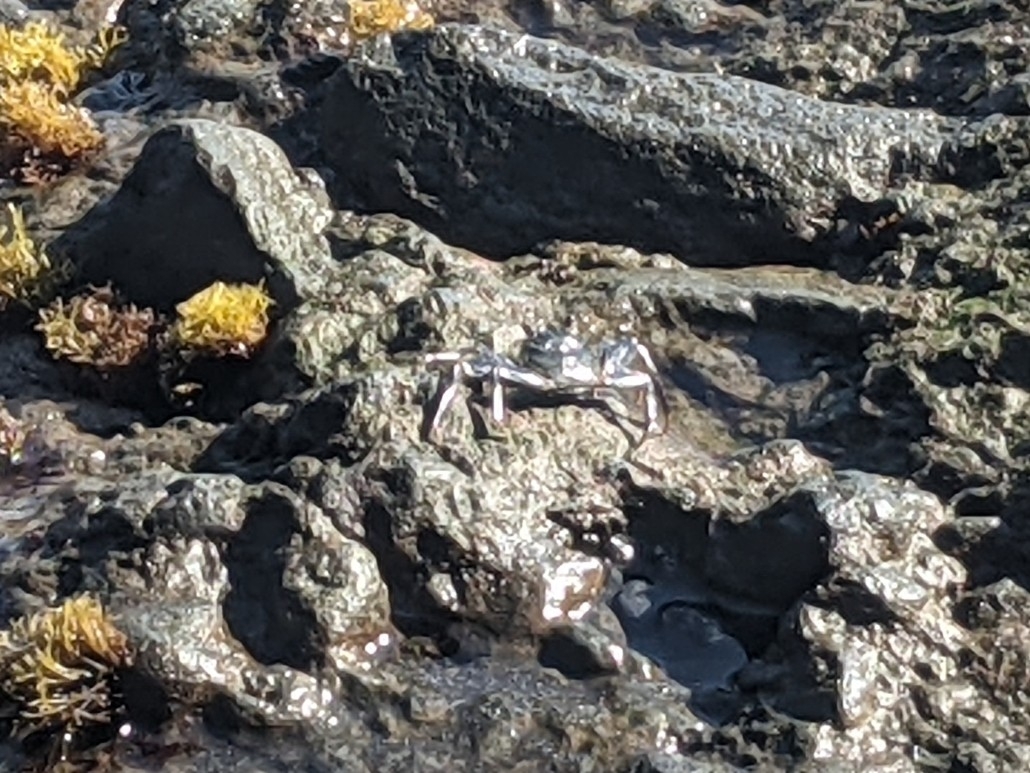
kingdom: Animalia
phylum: Arthropoda
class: Malacostraca
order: Decapoda
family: Grapsidae
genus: Grapsus
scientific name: Grapsus tenuicrustatus
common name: Natal lightfoot crab
